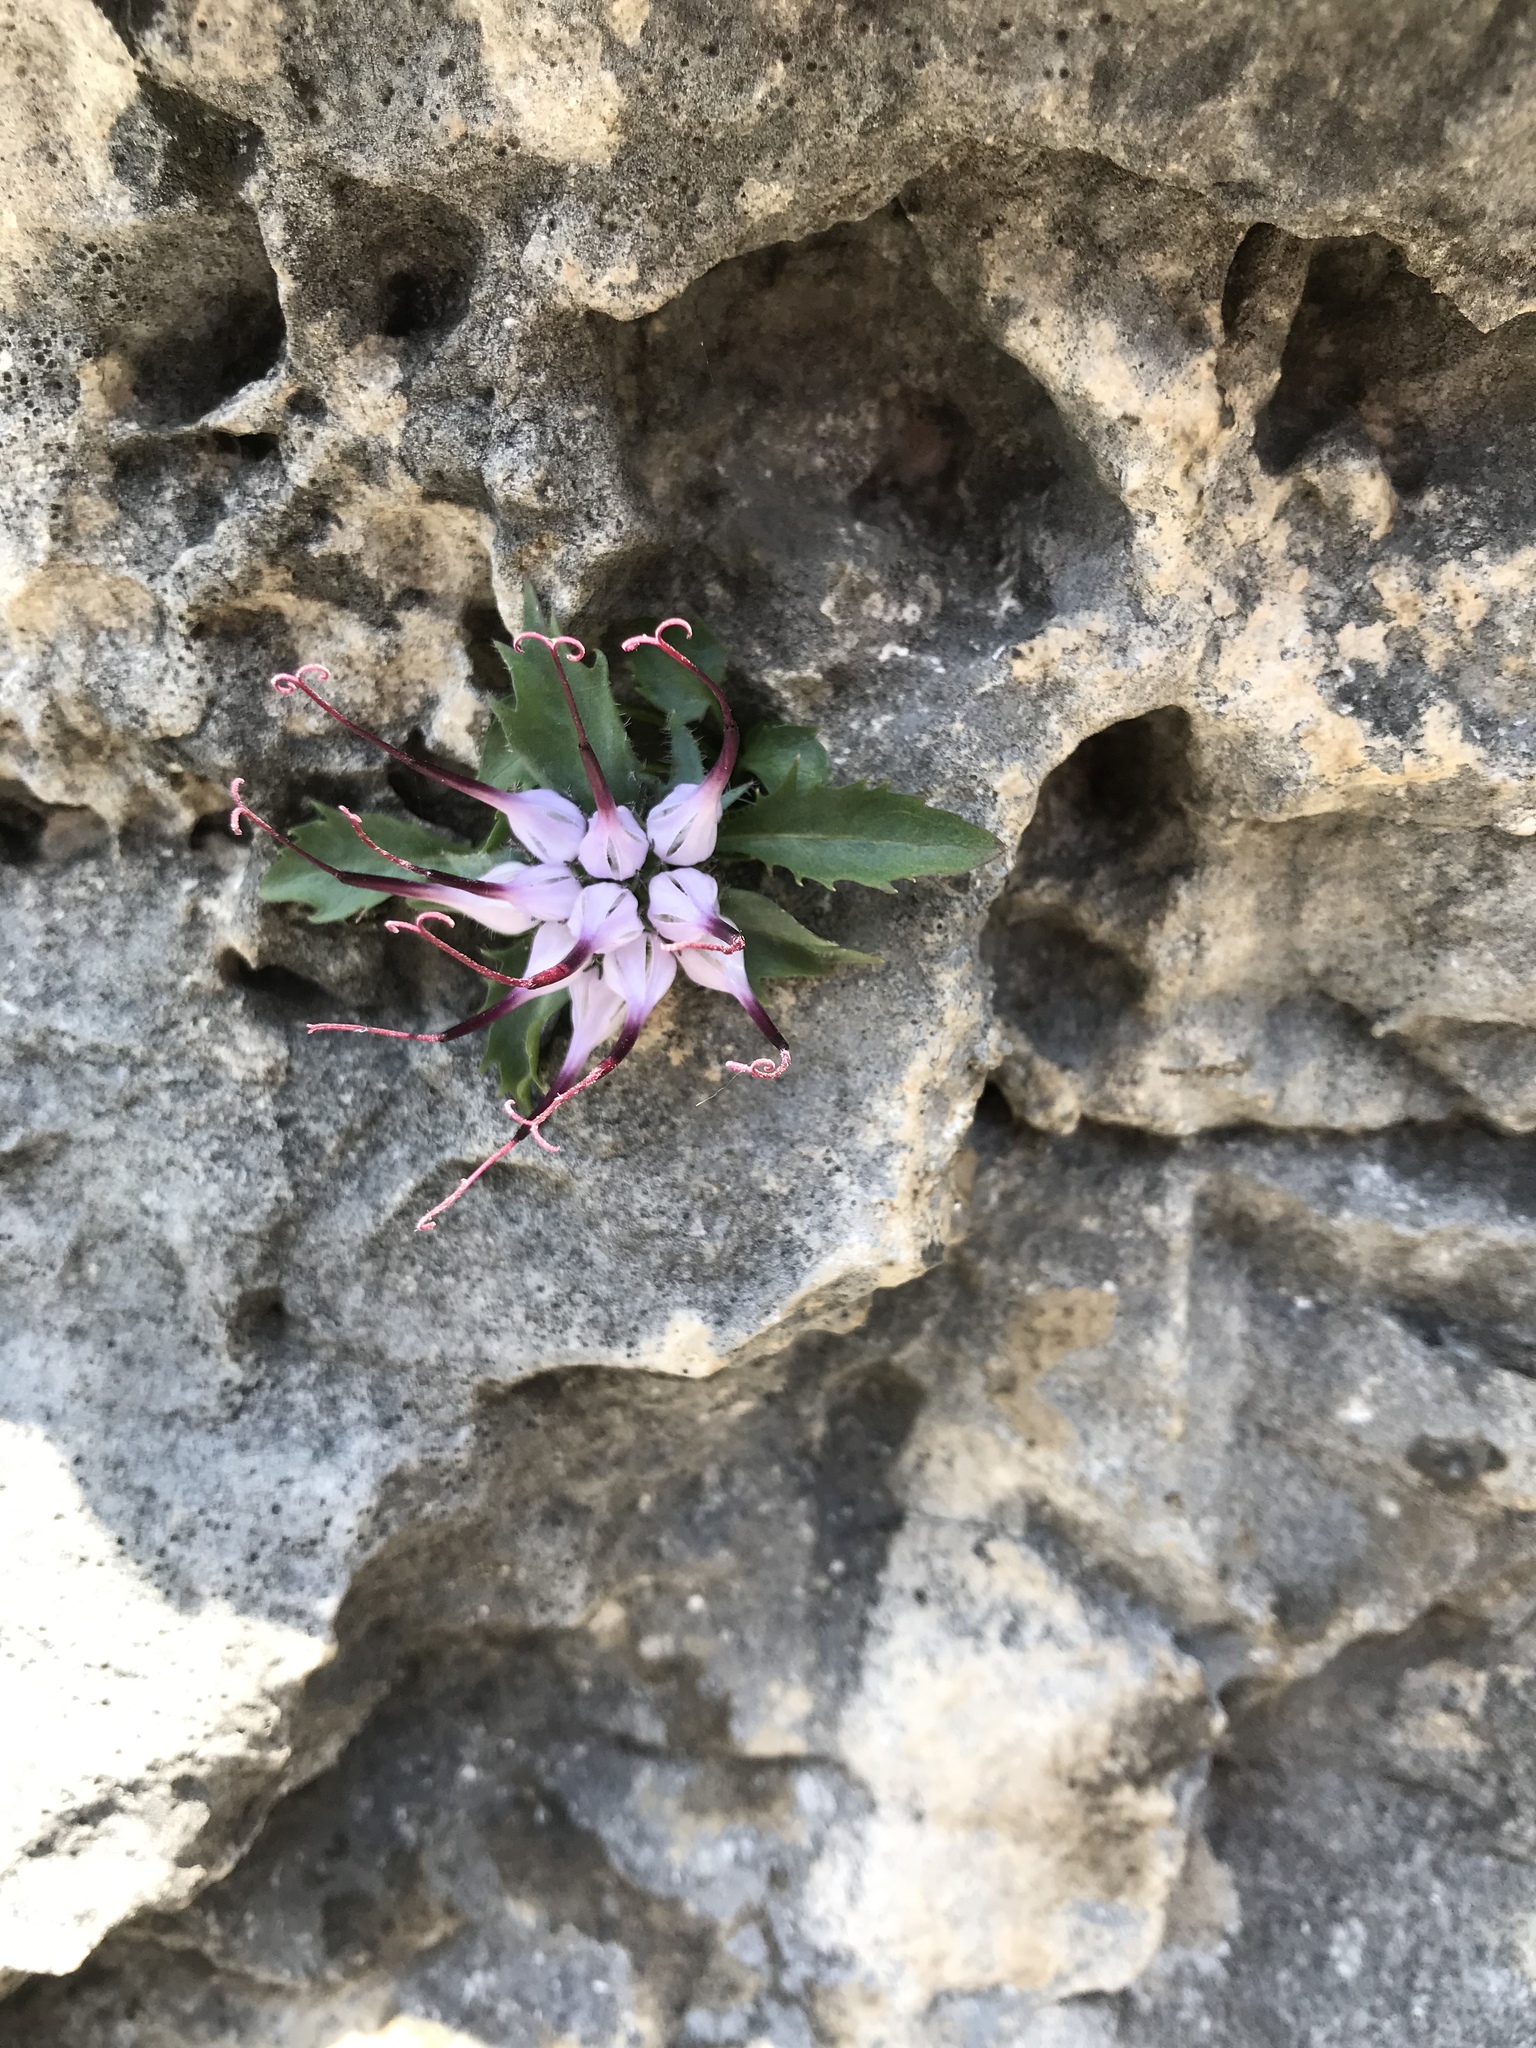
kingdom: Plantae
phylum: Tracheophyta
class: Magnoliopsida
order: Asterales
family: Campanulaceae
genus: Physoplexis
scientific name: Physoplexis comosa
